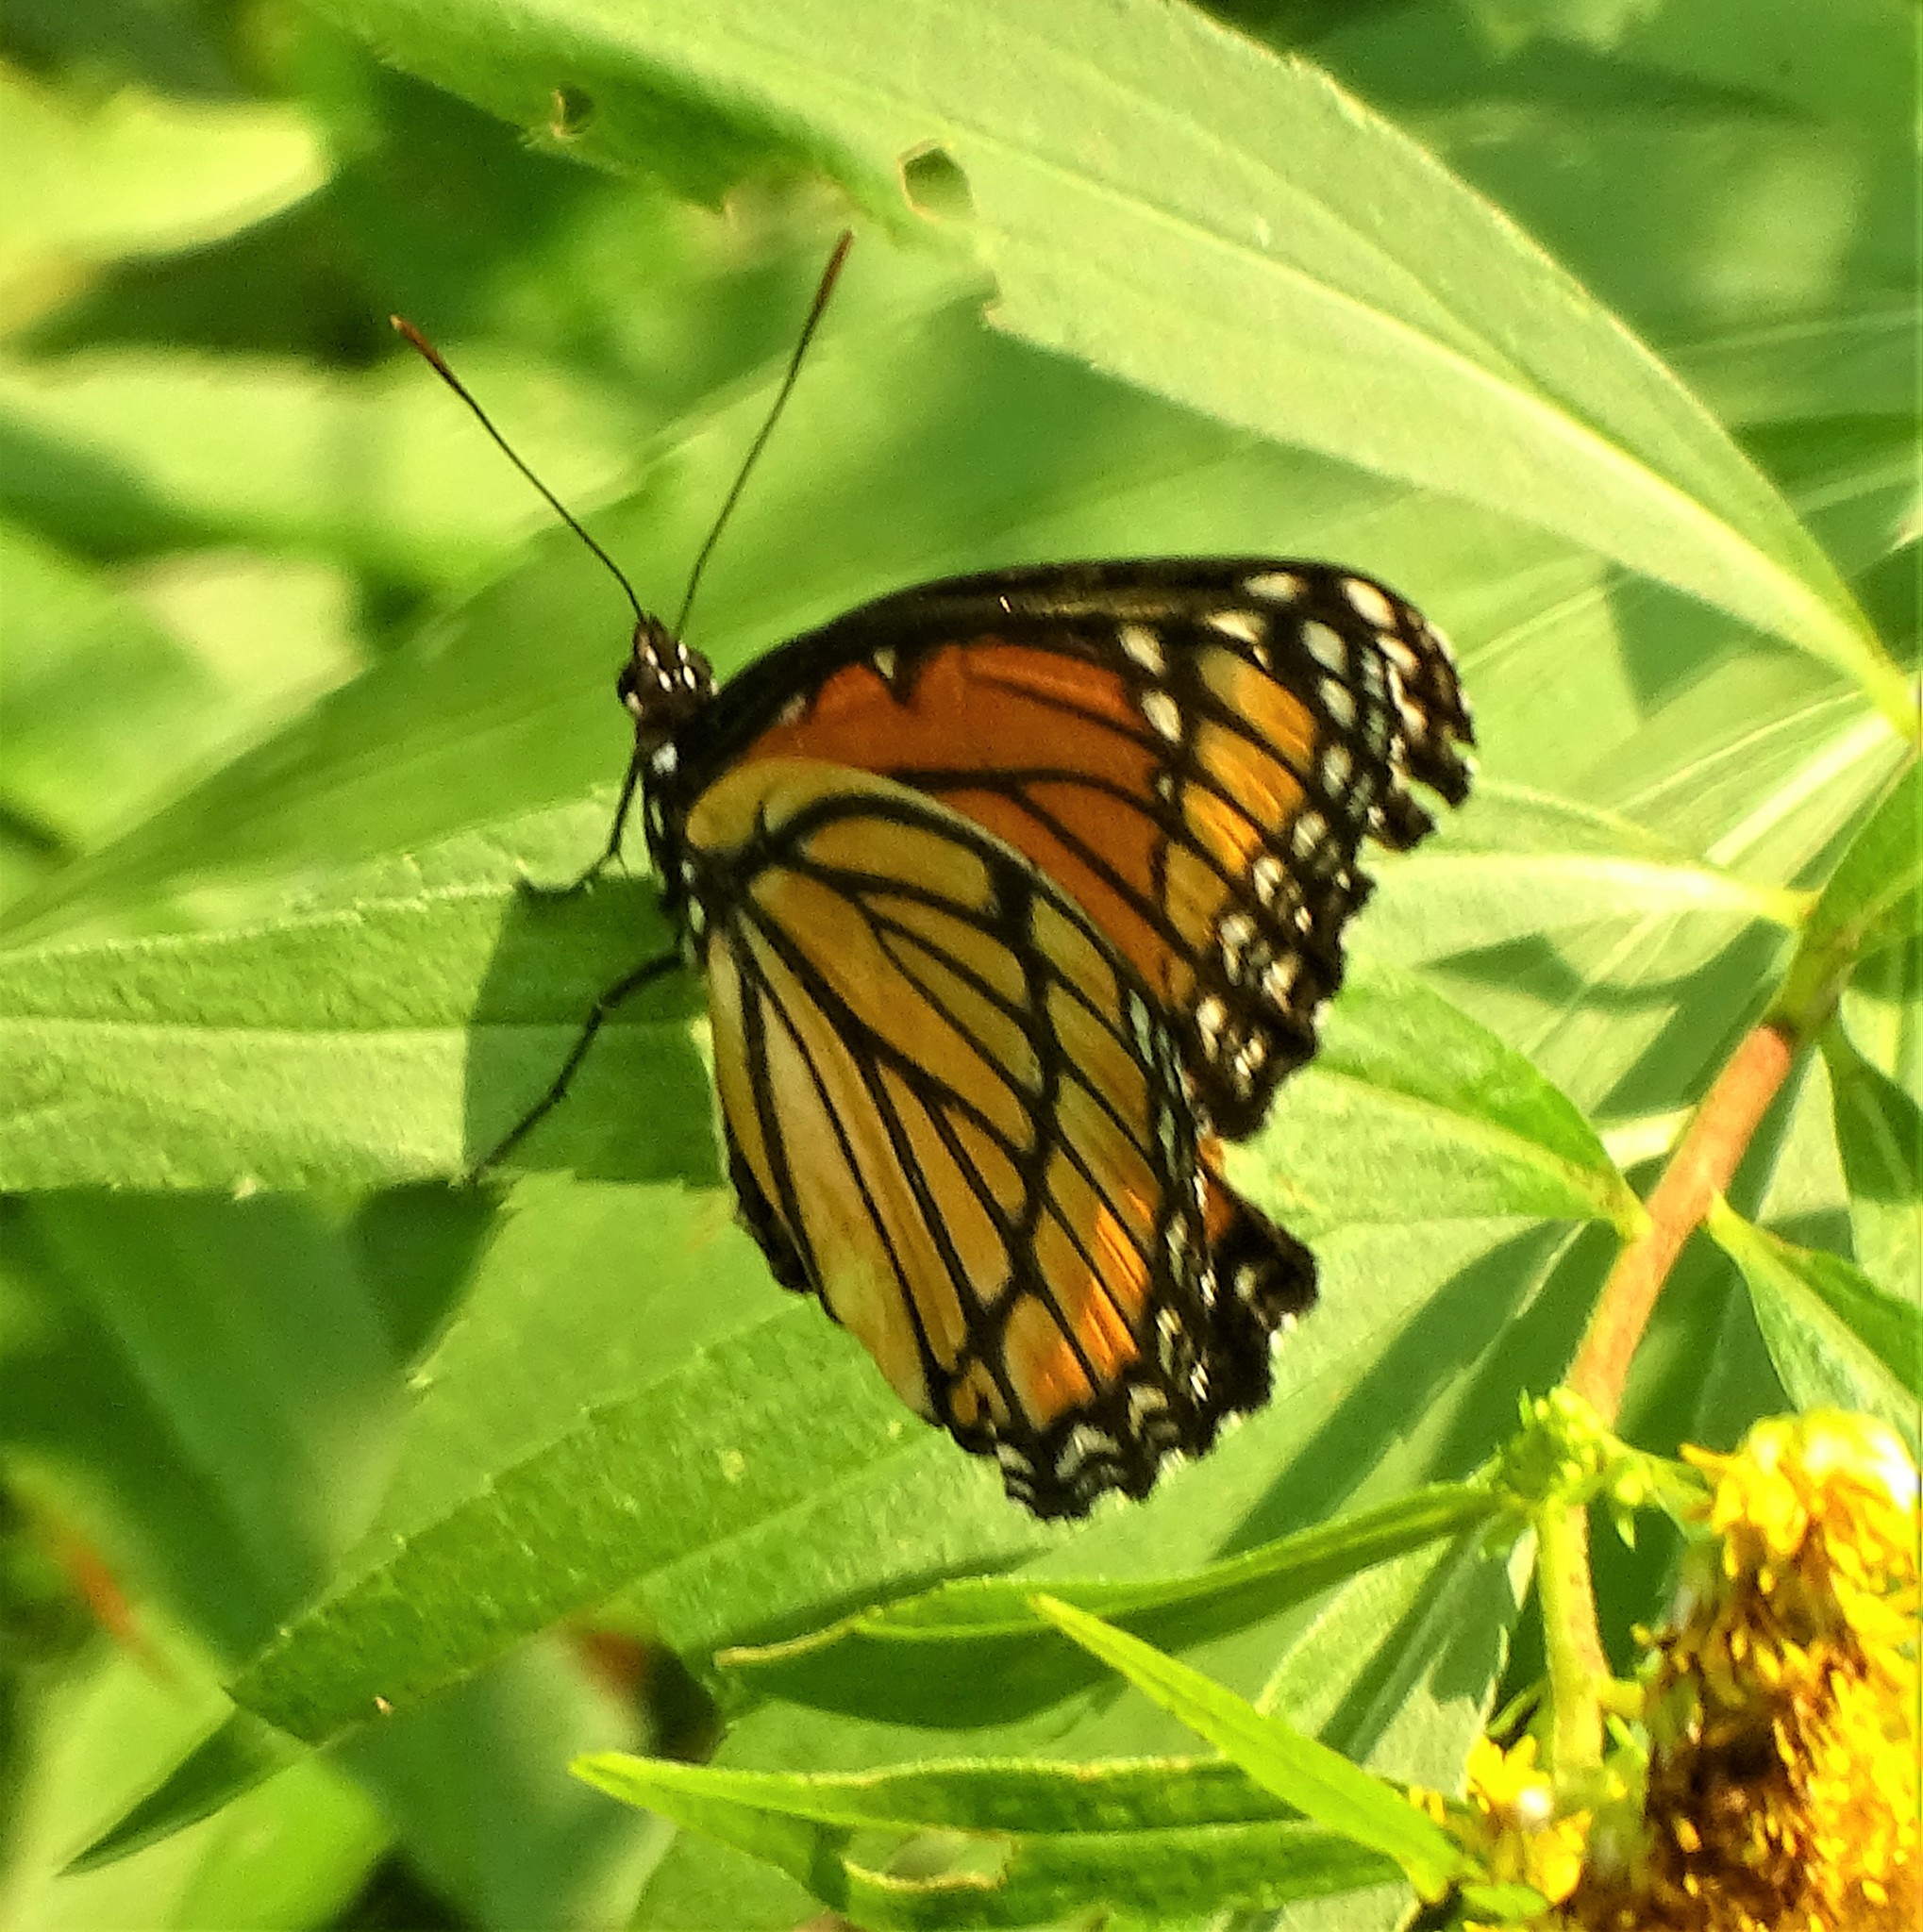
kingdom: Animalia
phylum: Arthropoda
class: Insecta
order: Lepidoptera
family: Nymphalidae
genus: Limenitis
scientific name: Limenitis archippus
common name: Viceroy
